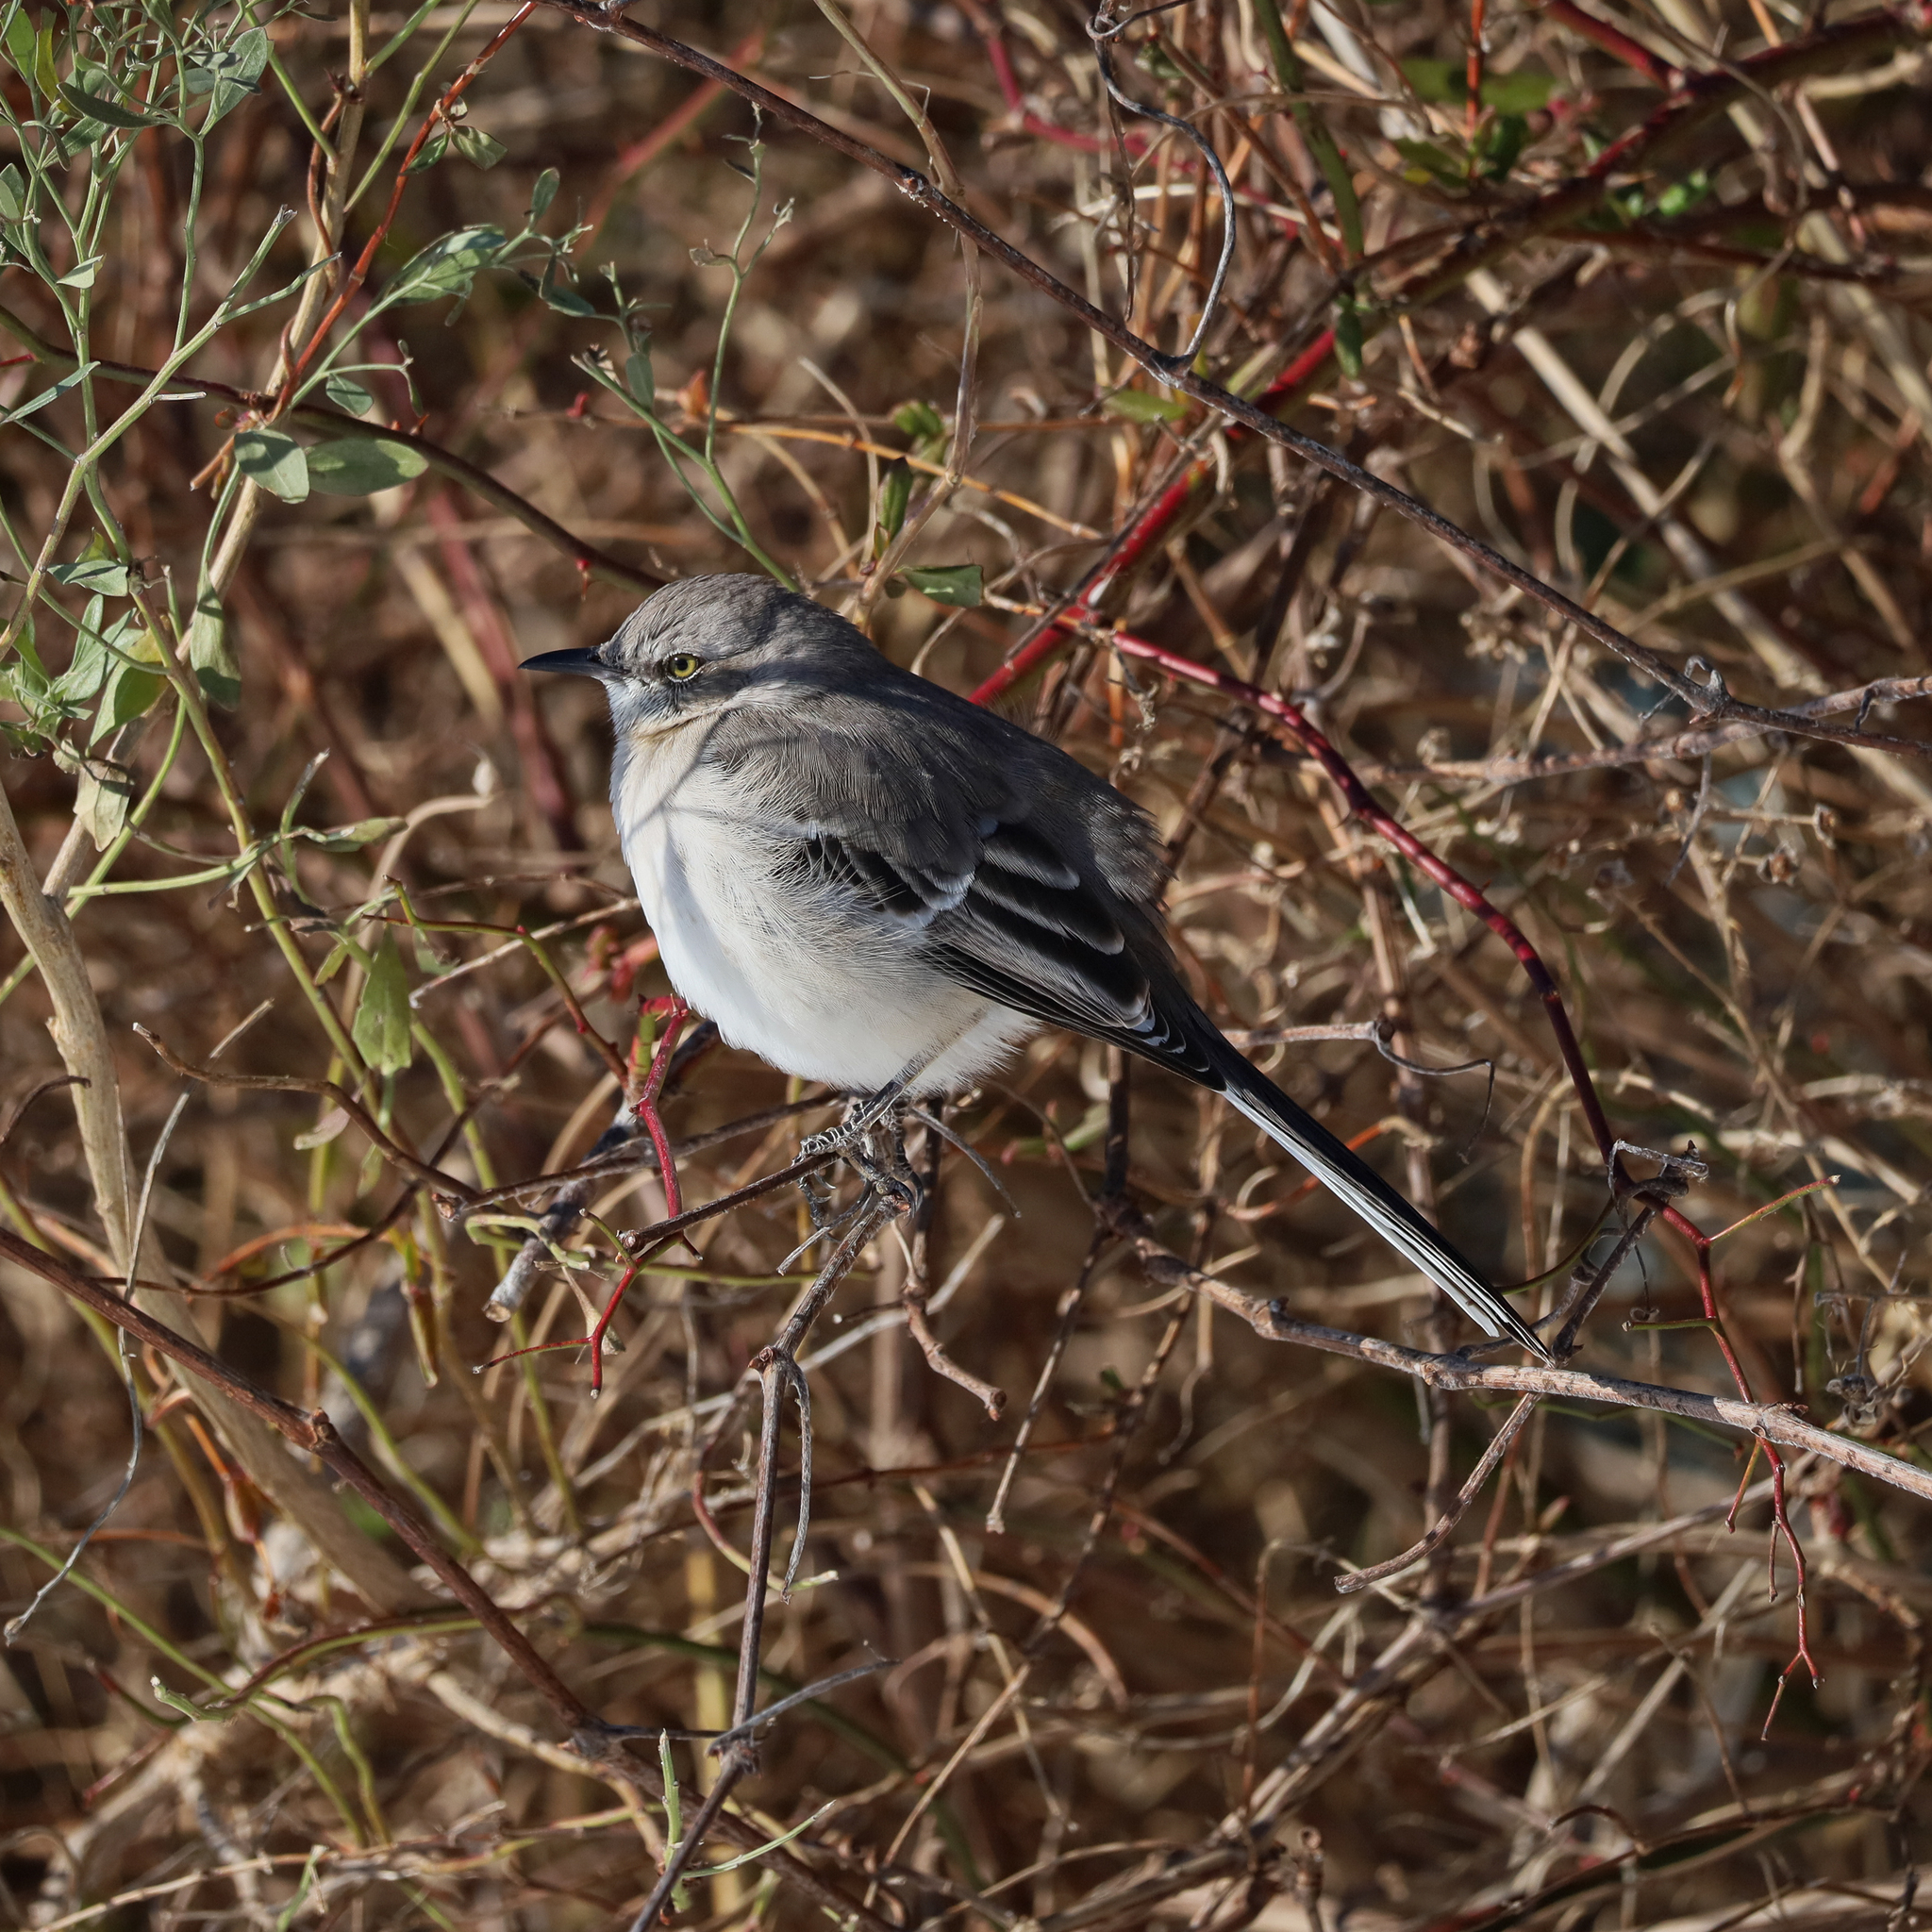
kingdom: Animalia
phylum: Chordata
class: Aves
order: Passeriformes
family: Mimidae
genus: Mimus
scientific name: Mimus polyglottos
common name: Northern mockingbird
